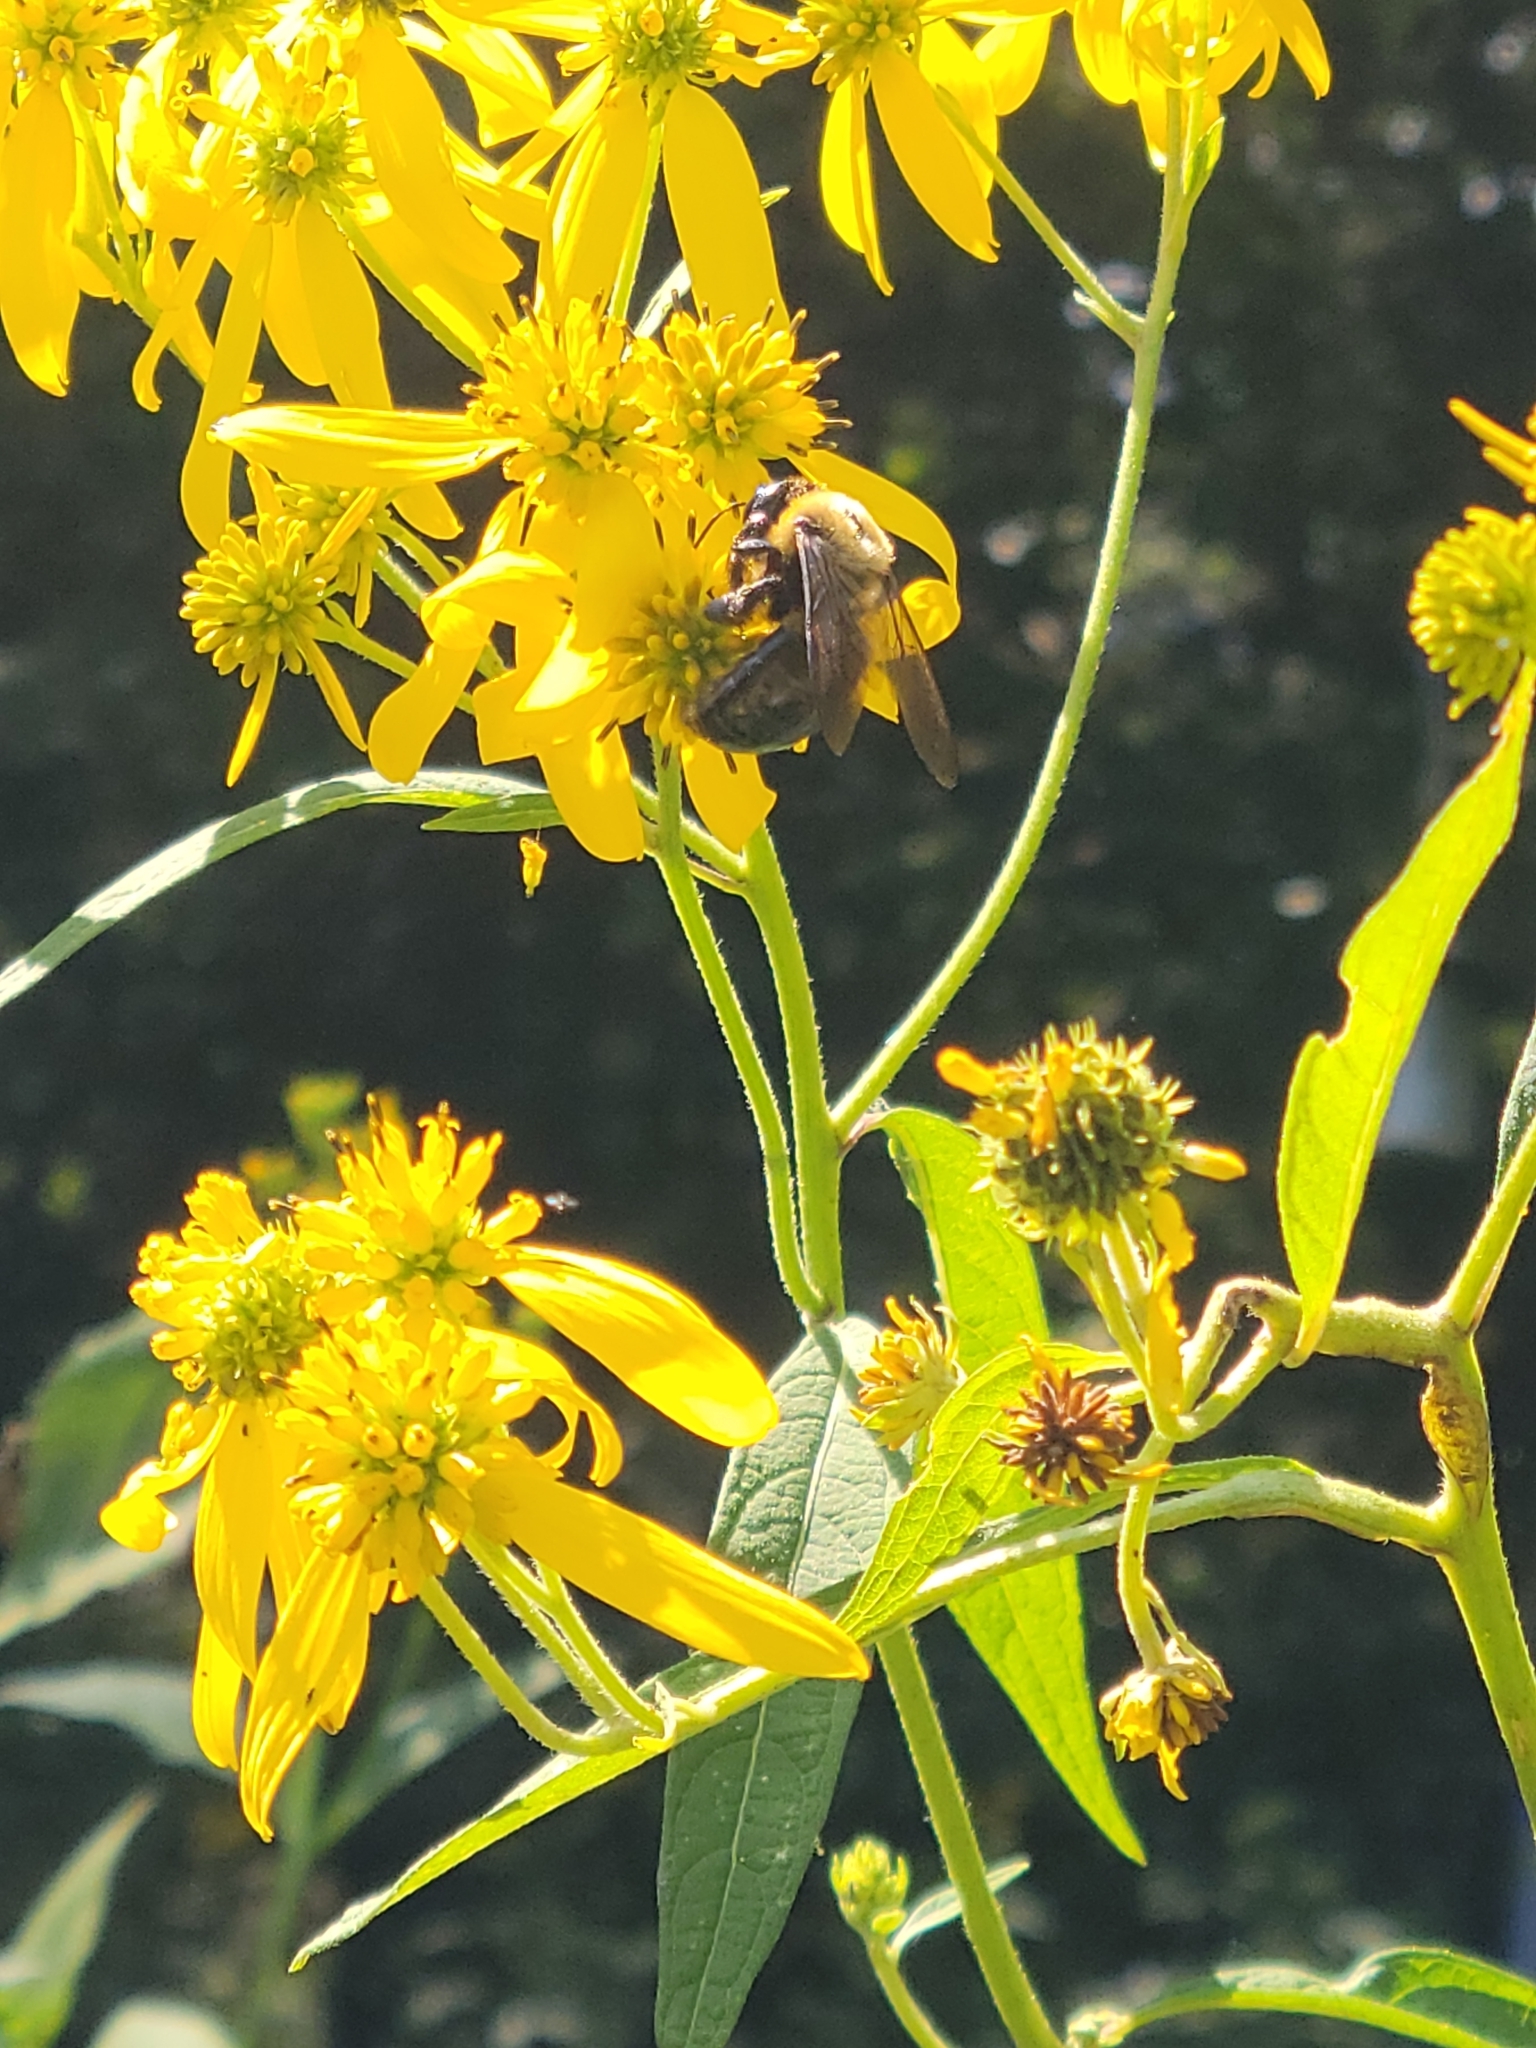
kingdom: Animalia
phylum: Arthropoda
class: Insecta
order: Hymenoptera
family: Apidae
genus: Xylocopa
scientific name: Xylocopa virginica
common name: Carpenter bee
